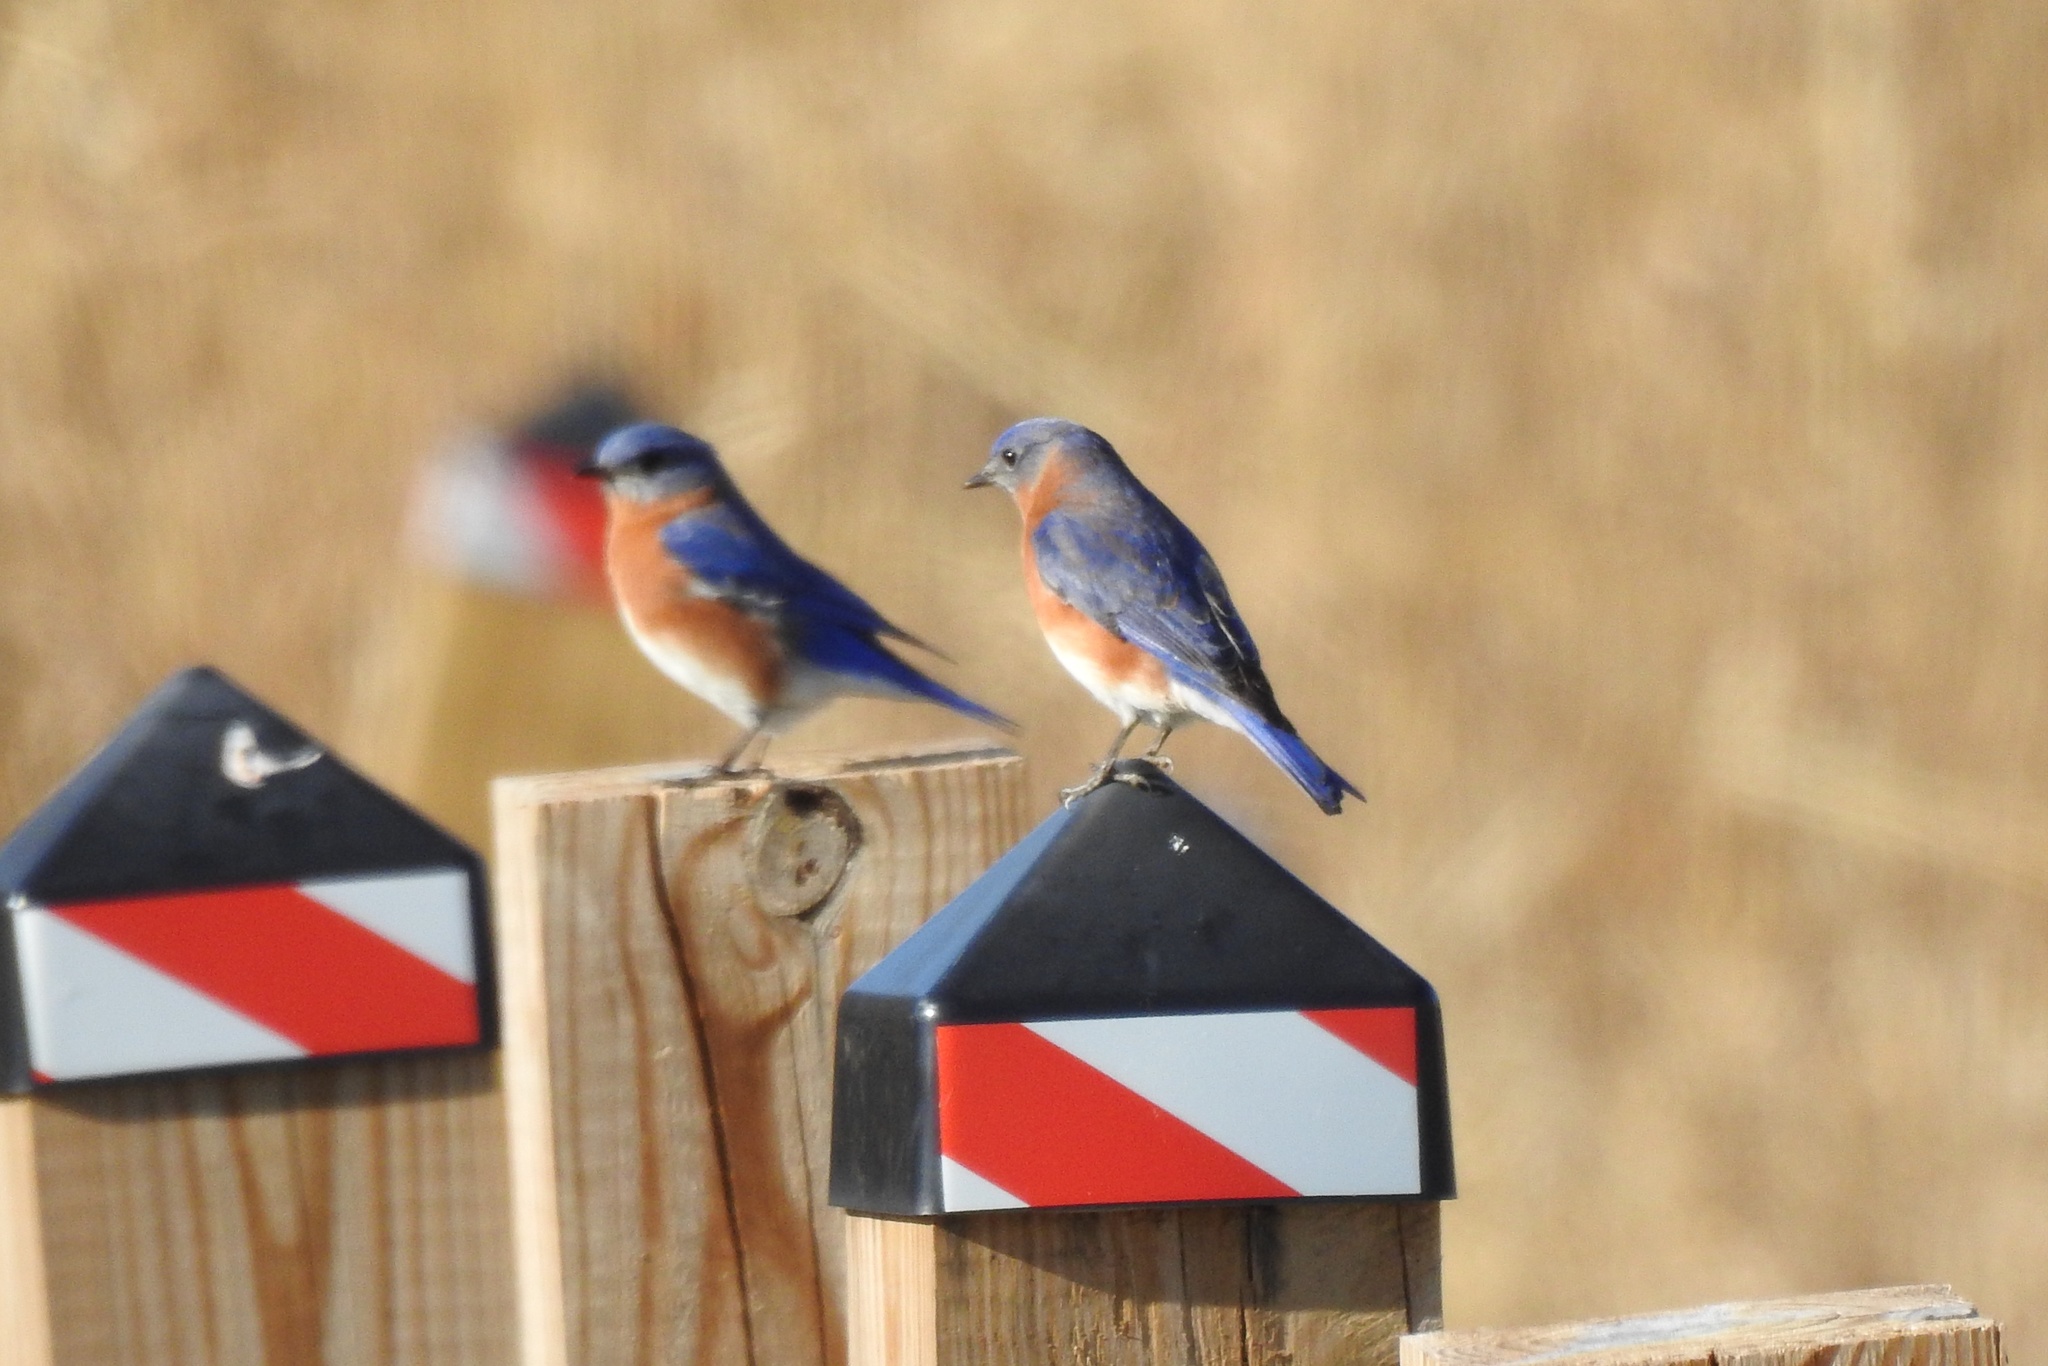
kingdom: Animalia
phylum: Chordata
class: Aves
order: Passeriformes
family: Turdidae
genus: Sialia
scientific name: Sialia sialis
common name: Eastern bluebird
